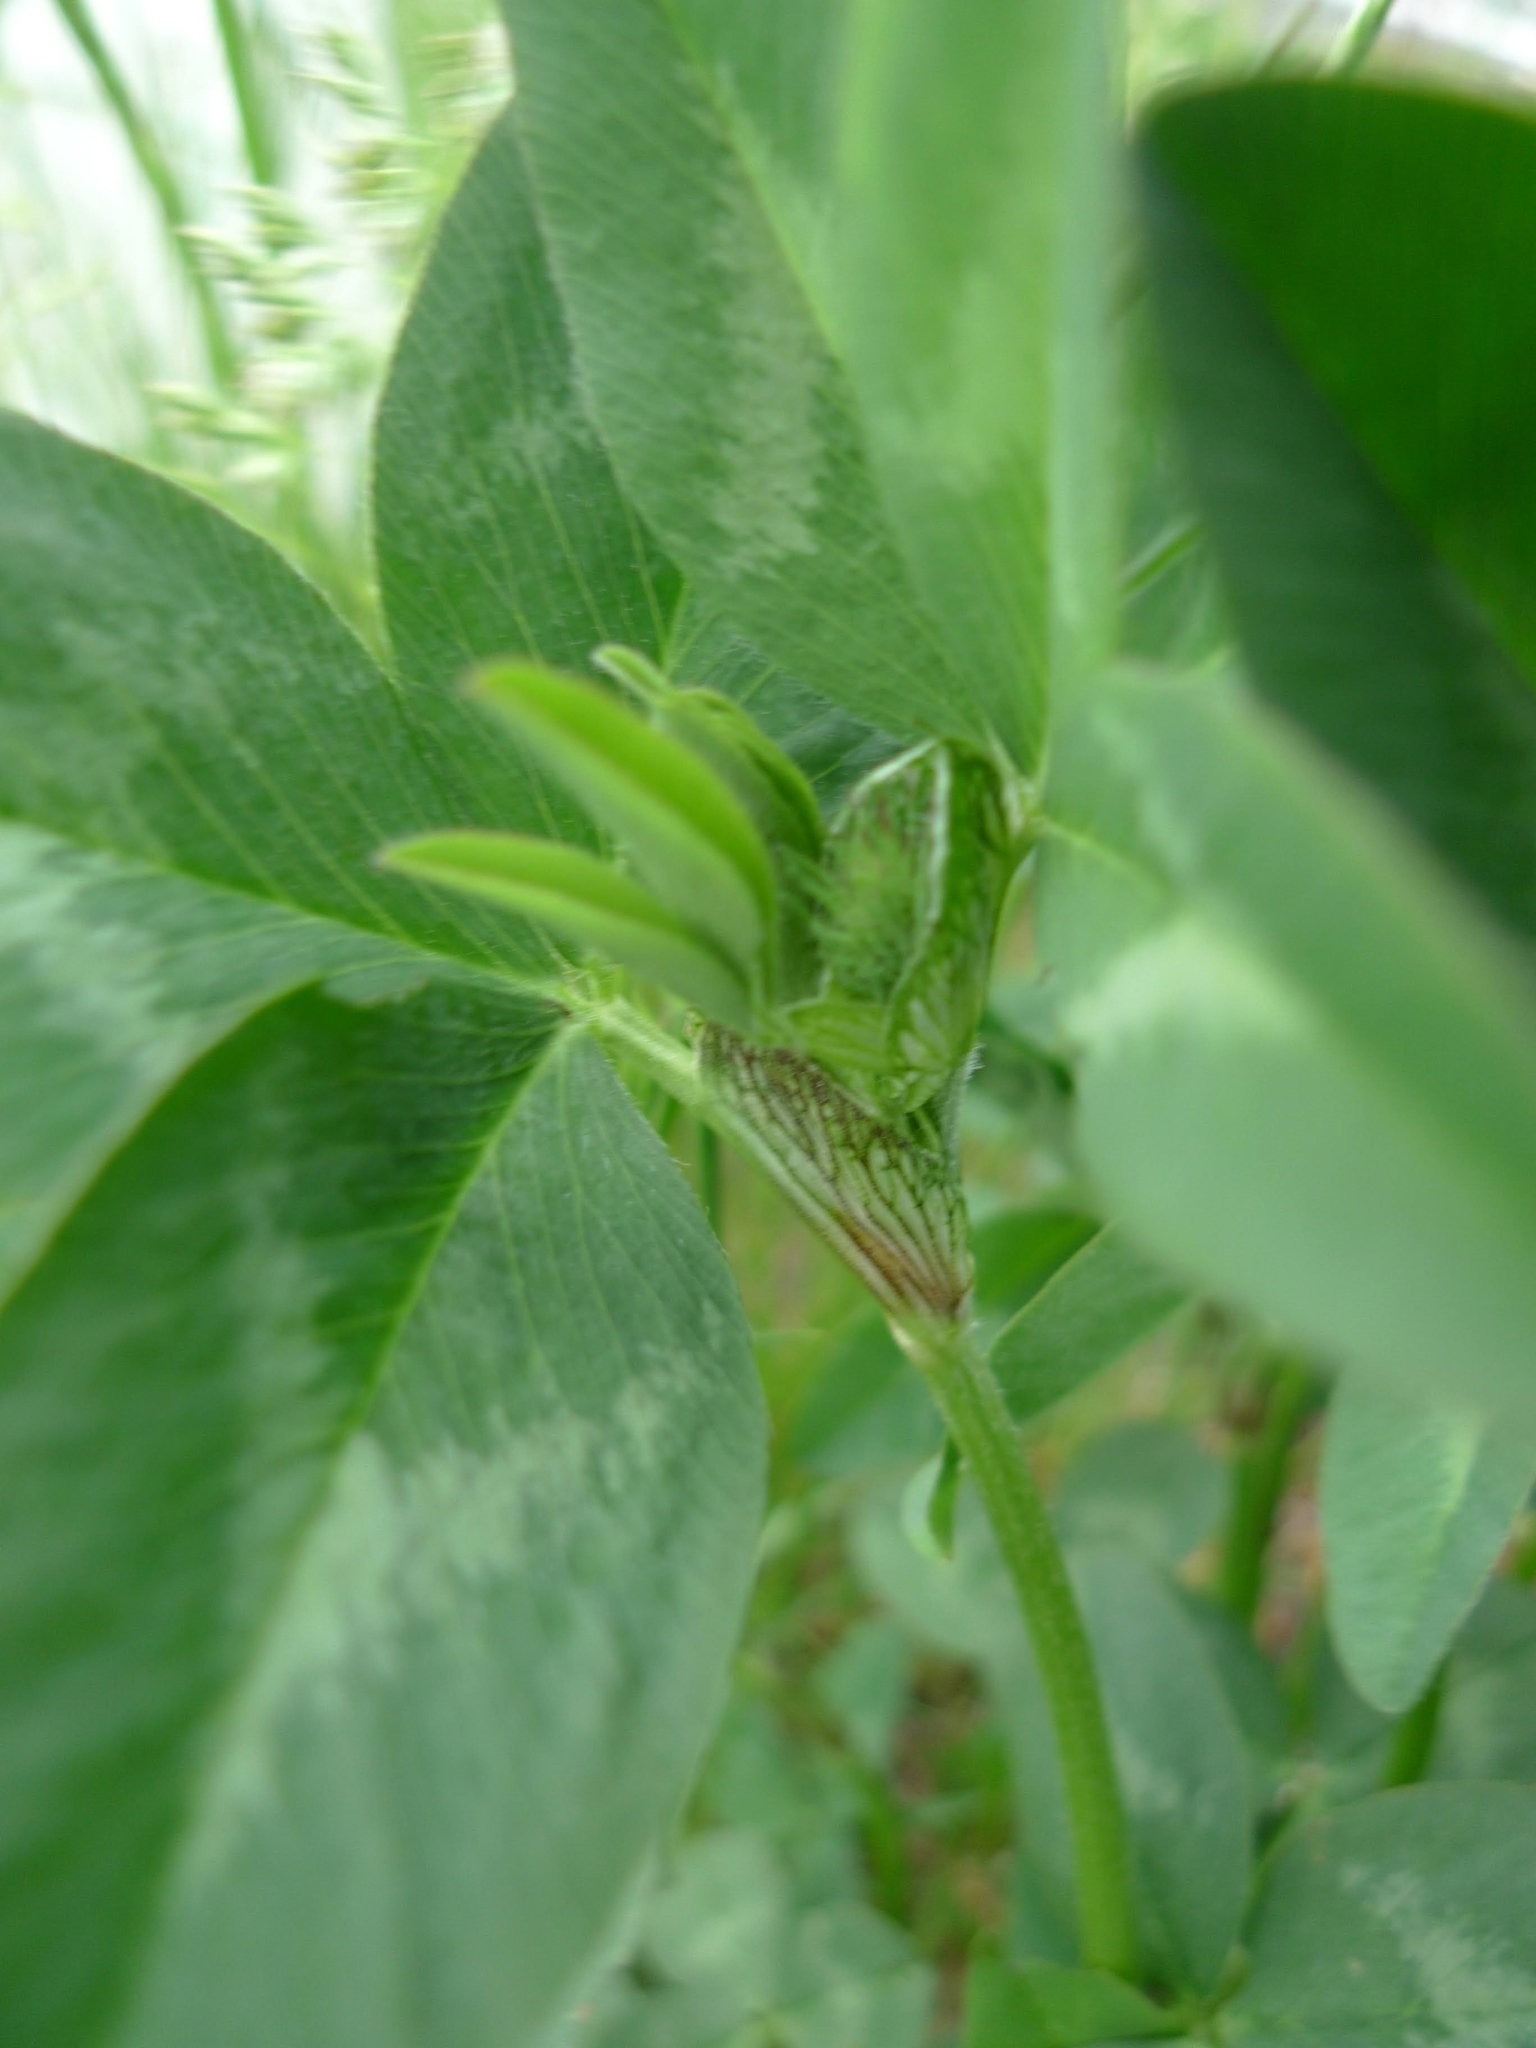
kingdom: Plantae
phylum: Tracheophyta
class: Magnoliopsida
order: Fabales
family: Fabaceae
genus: Trifolium
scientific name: Trifolium pratense
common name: Red clover
